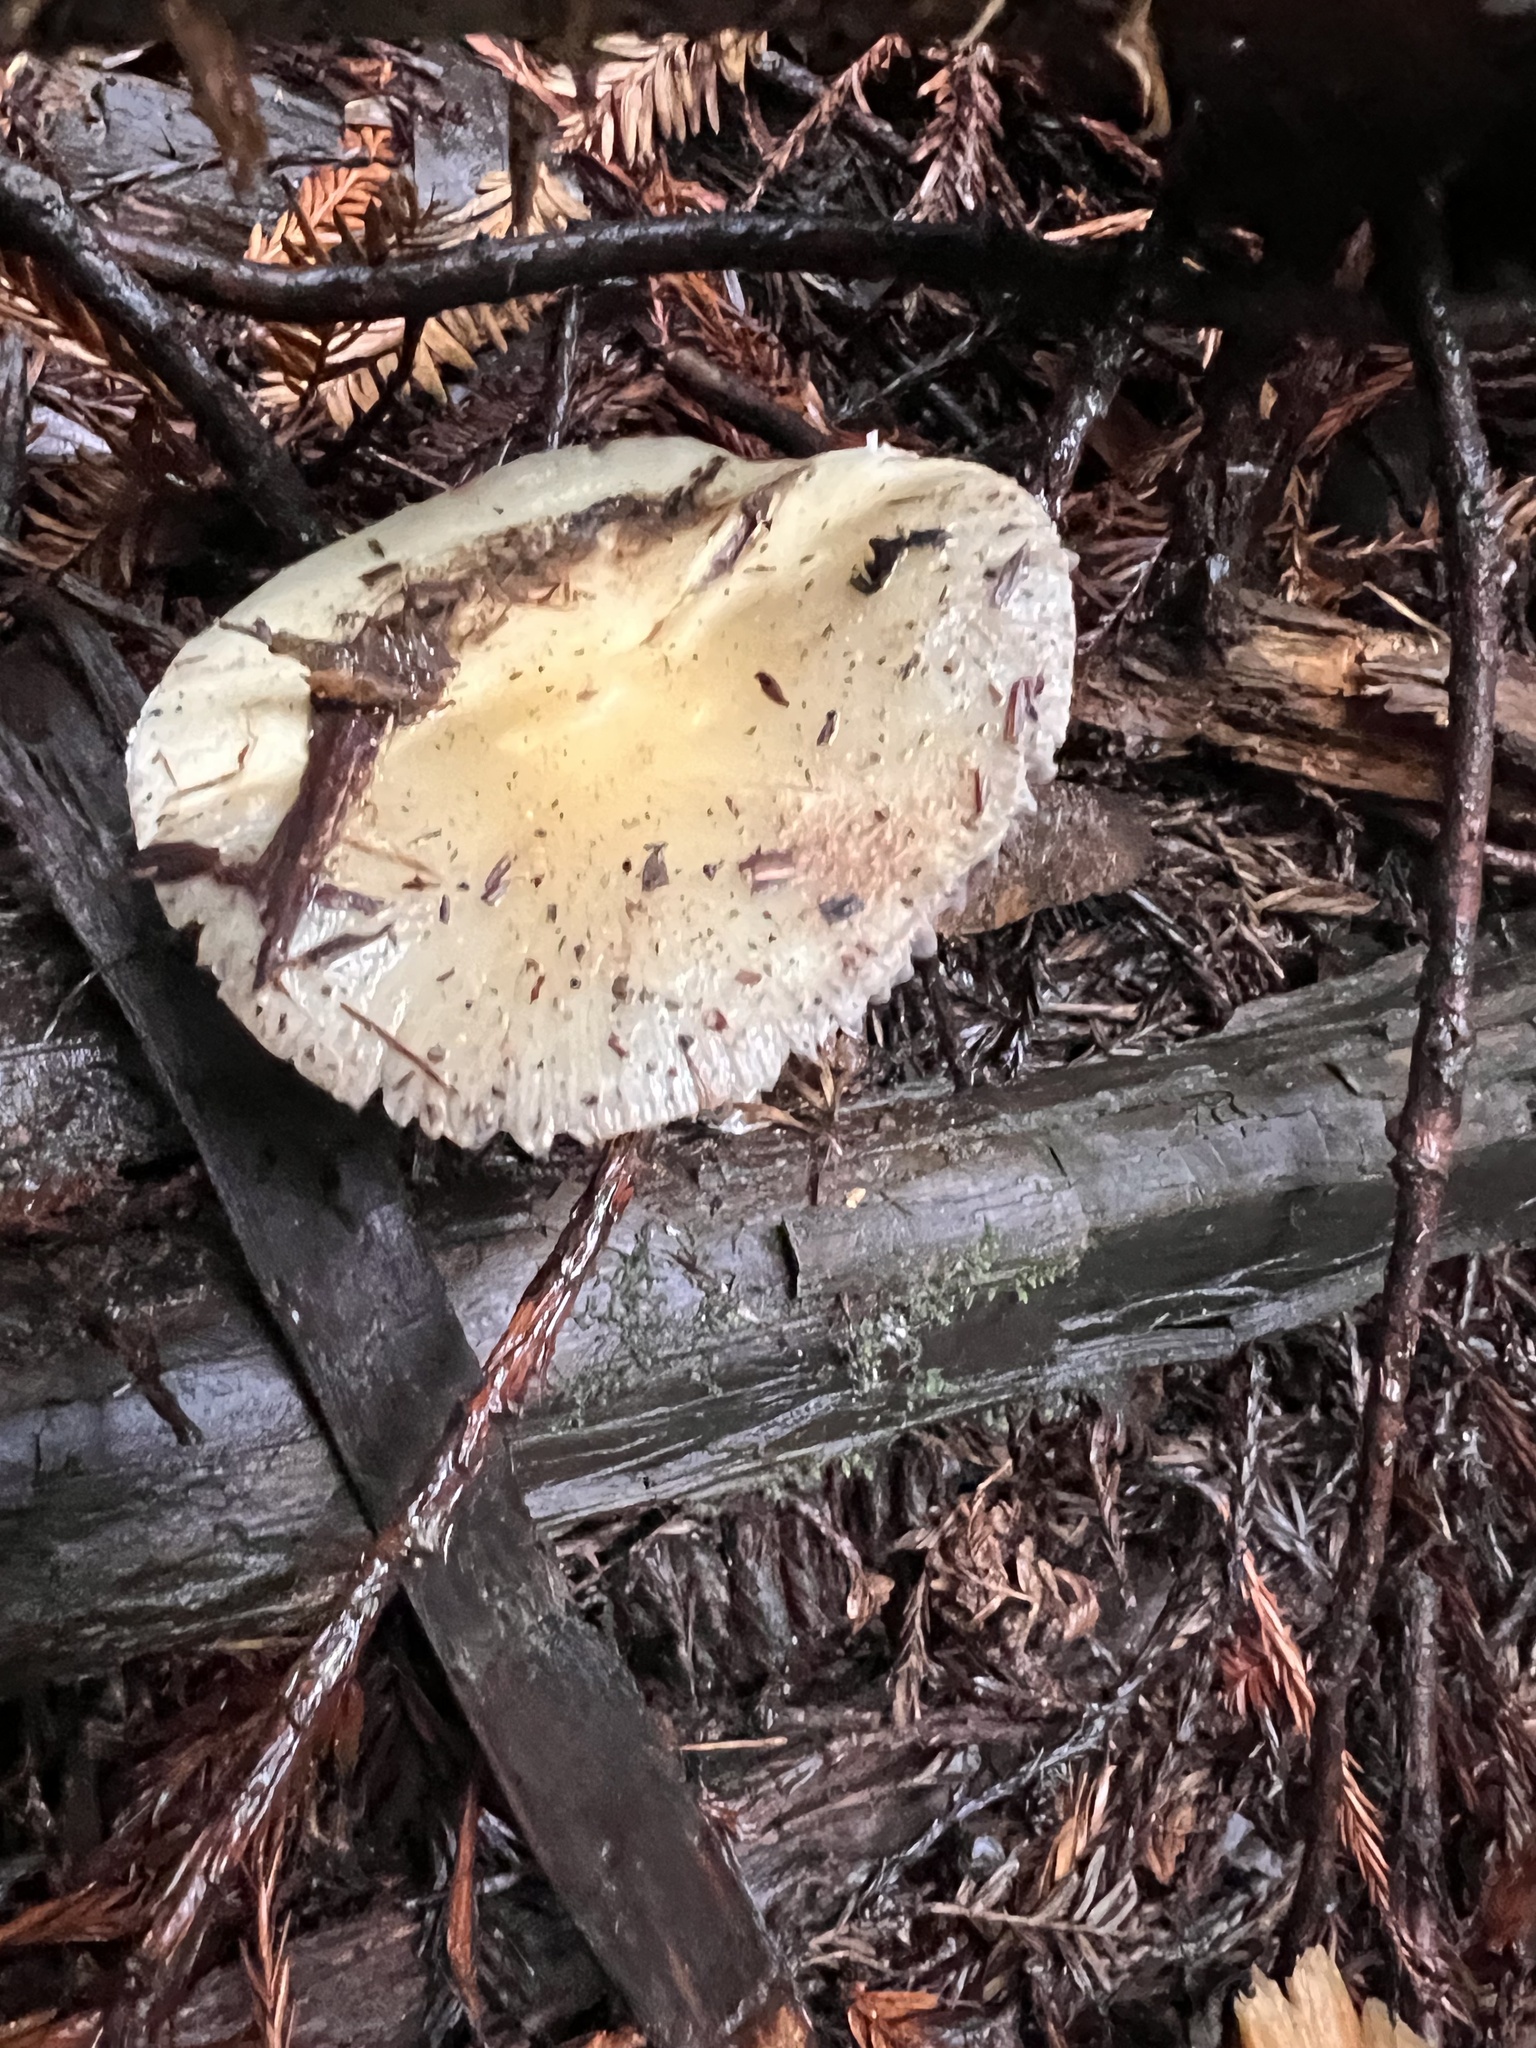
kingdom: Fungi
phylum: Basidiomycota
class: Agaricomycetes
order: Agaricales
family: Strophariaceae
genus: Stropharia
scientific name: Stropharia ambigua
